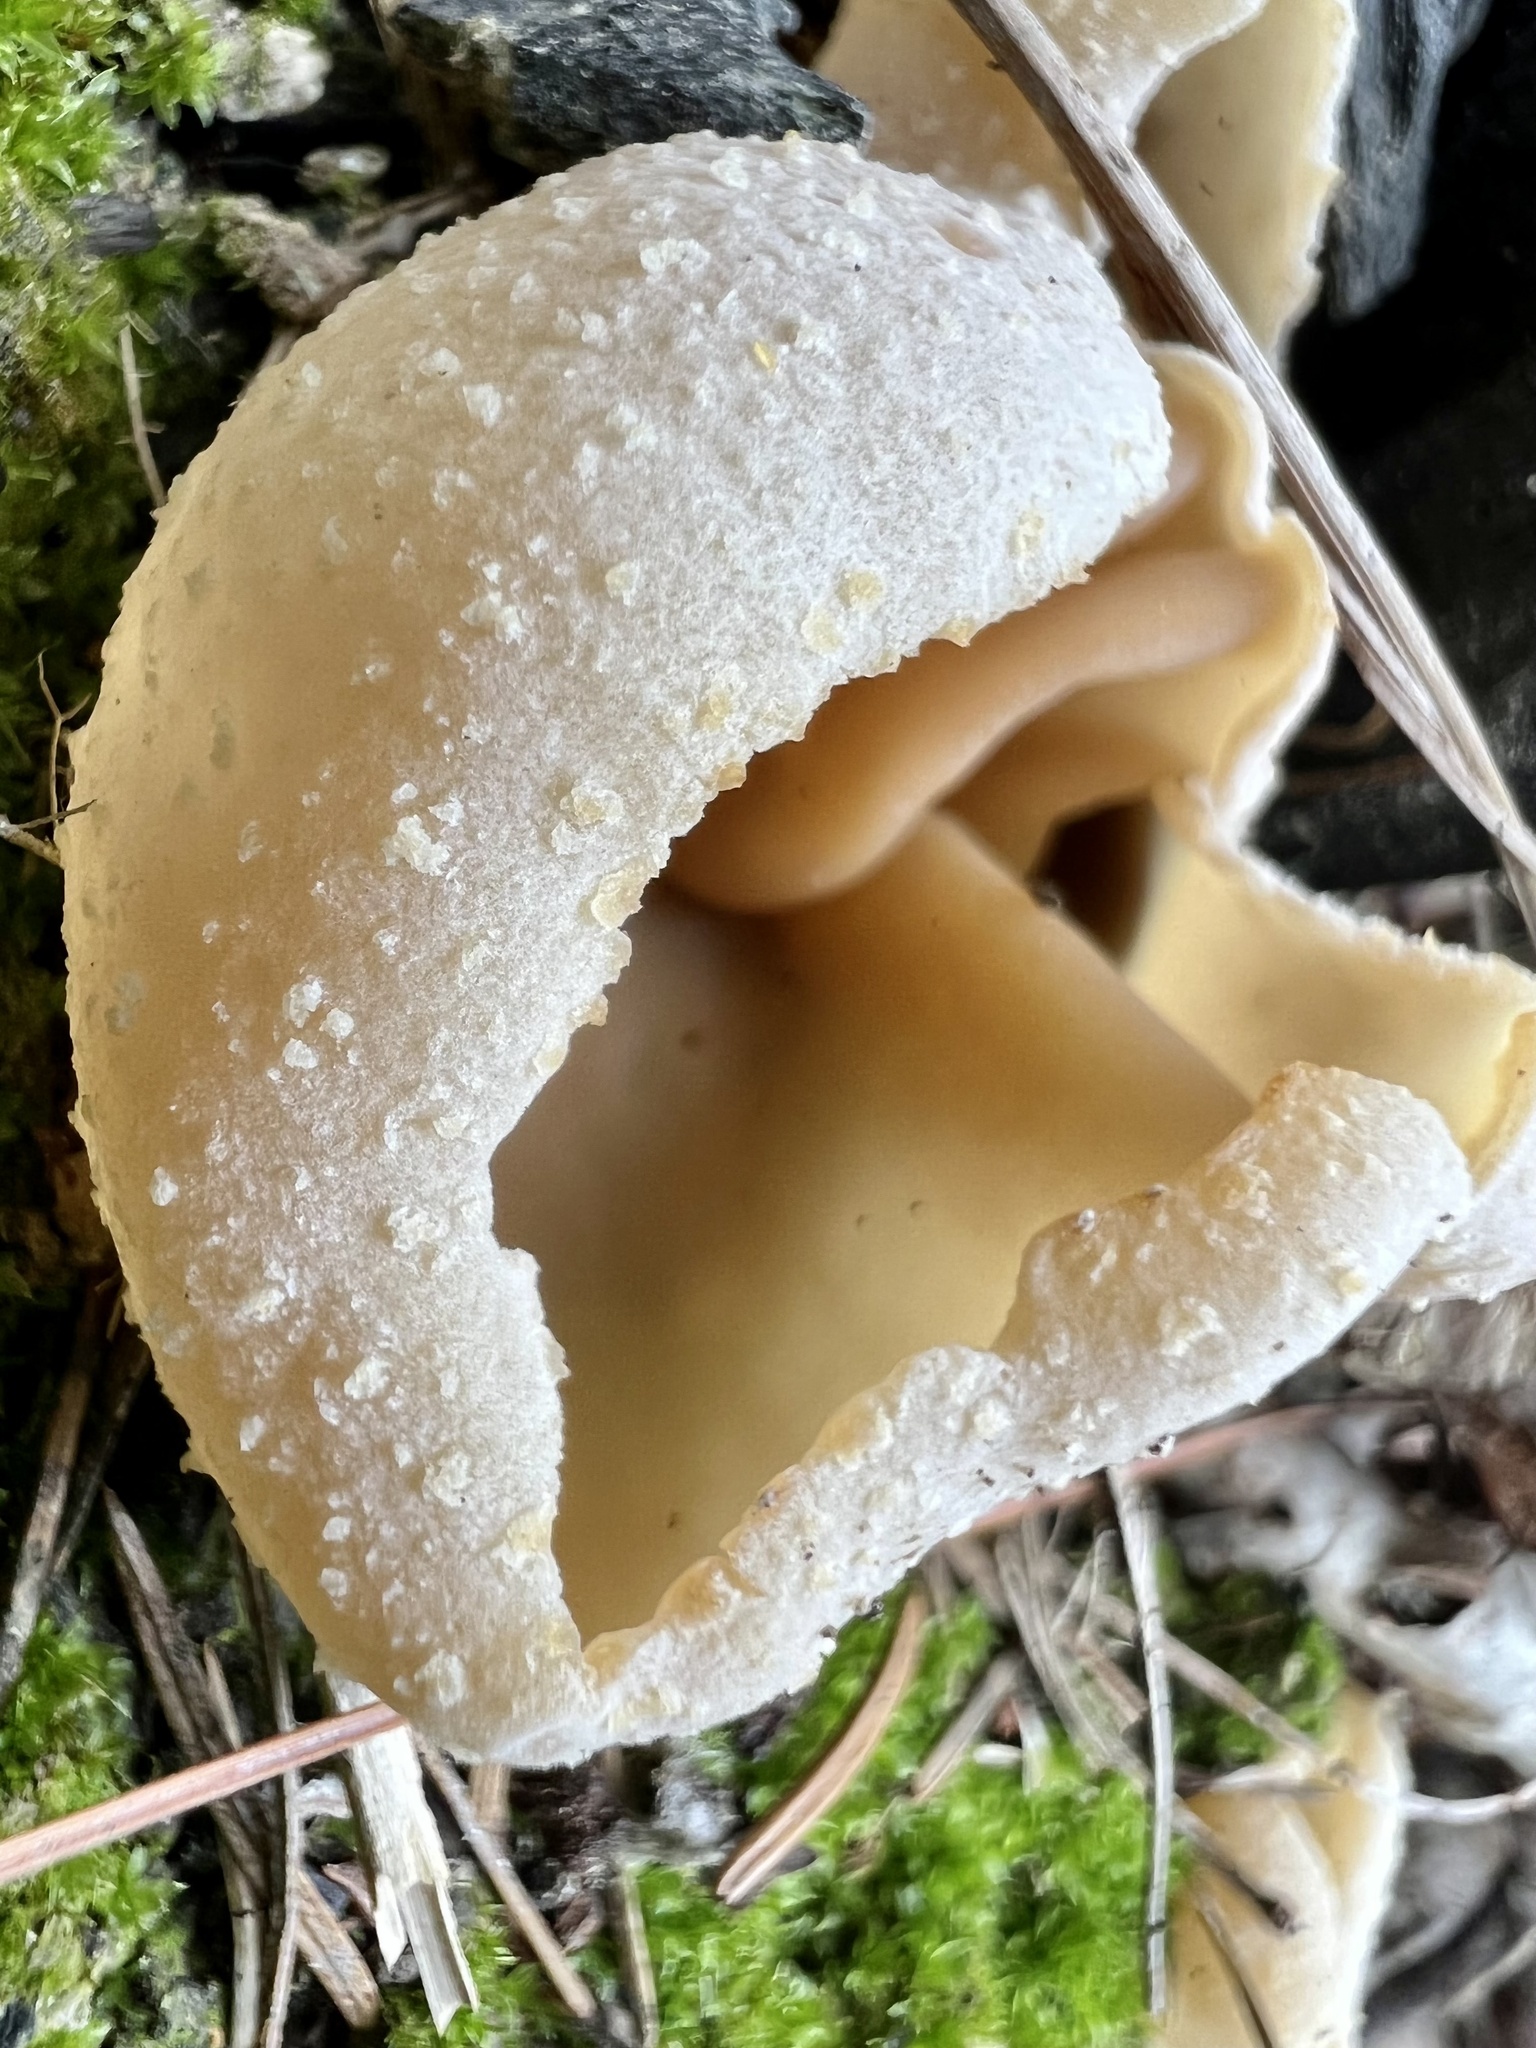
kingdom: Fungi
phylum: Ascomycota
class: Pezizomycetes
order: Pezizales
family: Pezizaceae
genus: Peziza
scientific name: Peziza varia
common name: Layered cup
